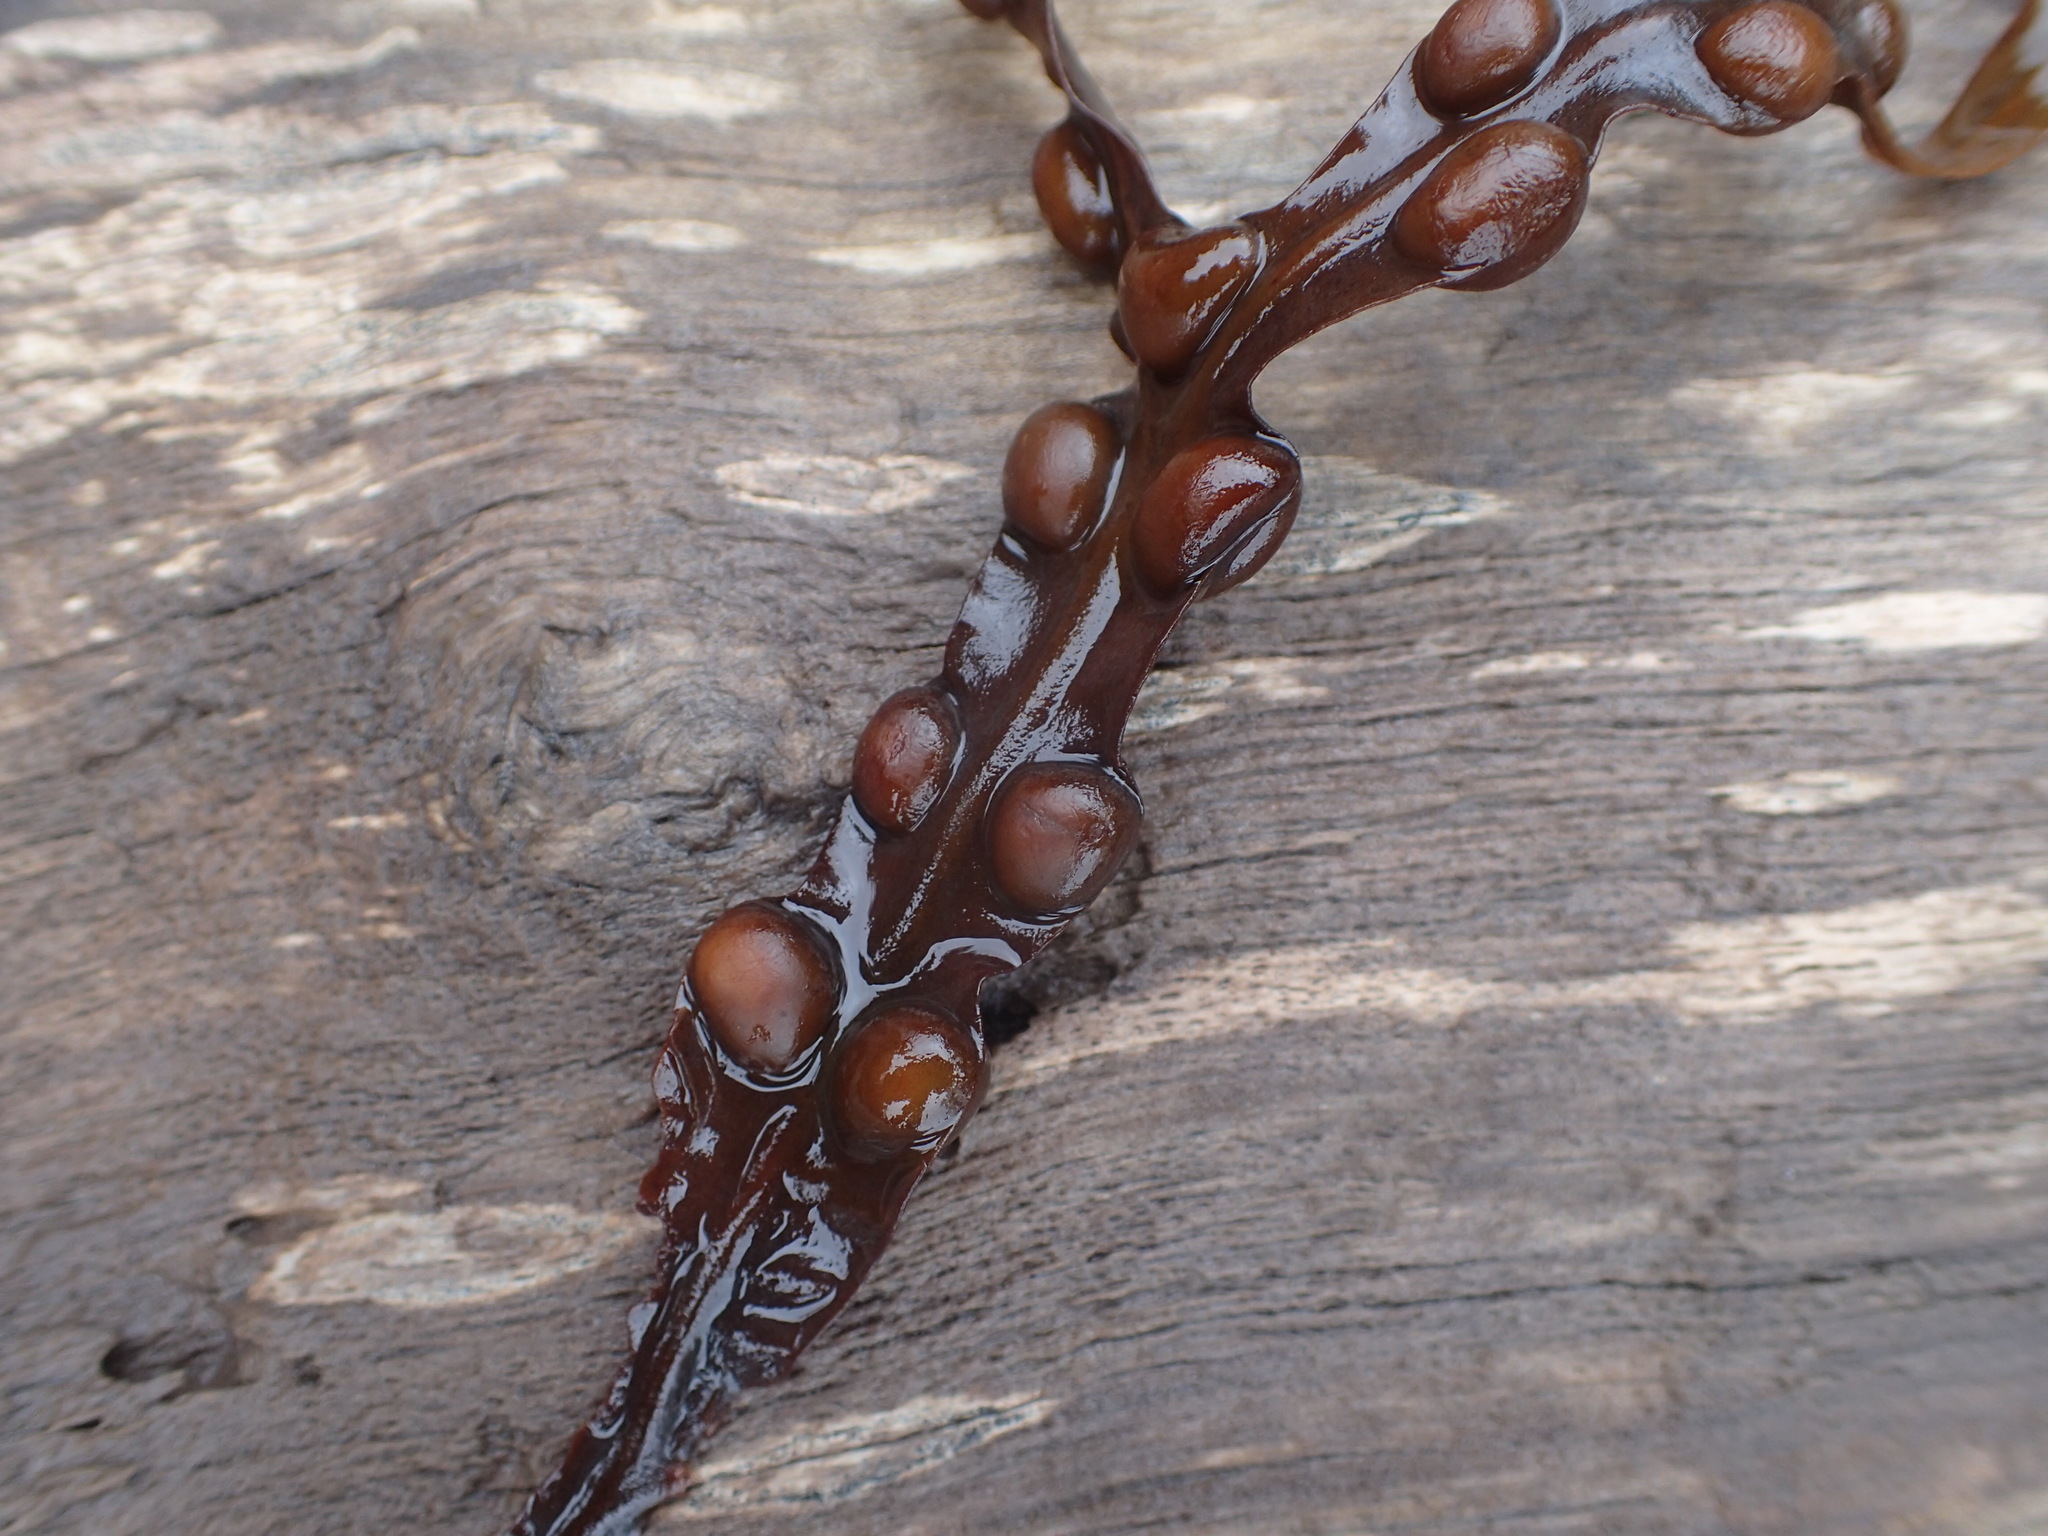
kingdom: Chromista
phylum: Ochrophyta
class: Phaeophyceae
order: Fucales
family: Fucaceae
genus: Fucus
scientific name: Fucus vesiculosus
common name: Bladder wrack
